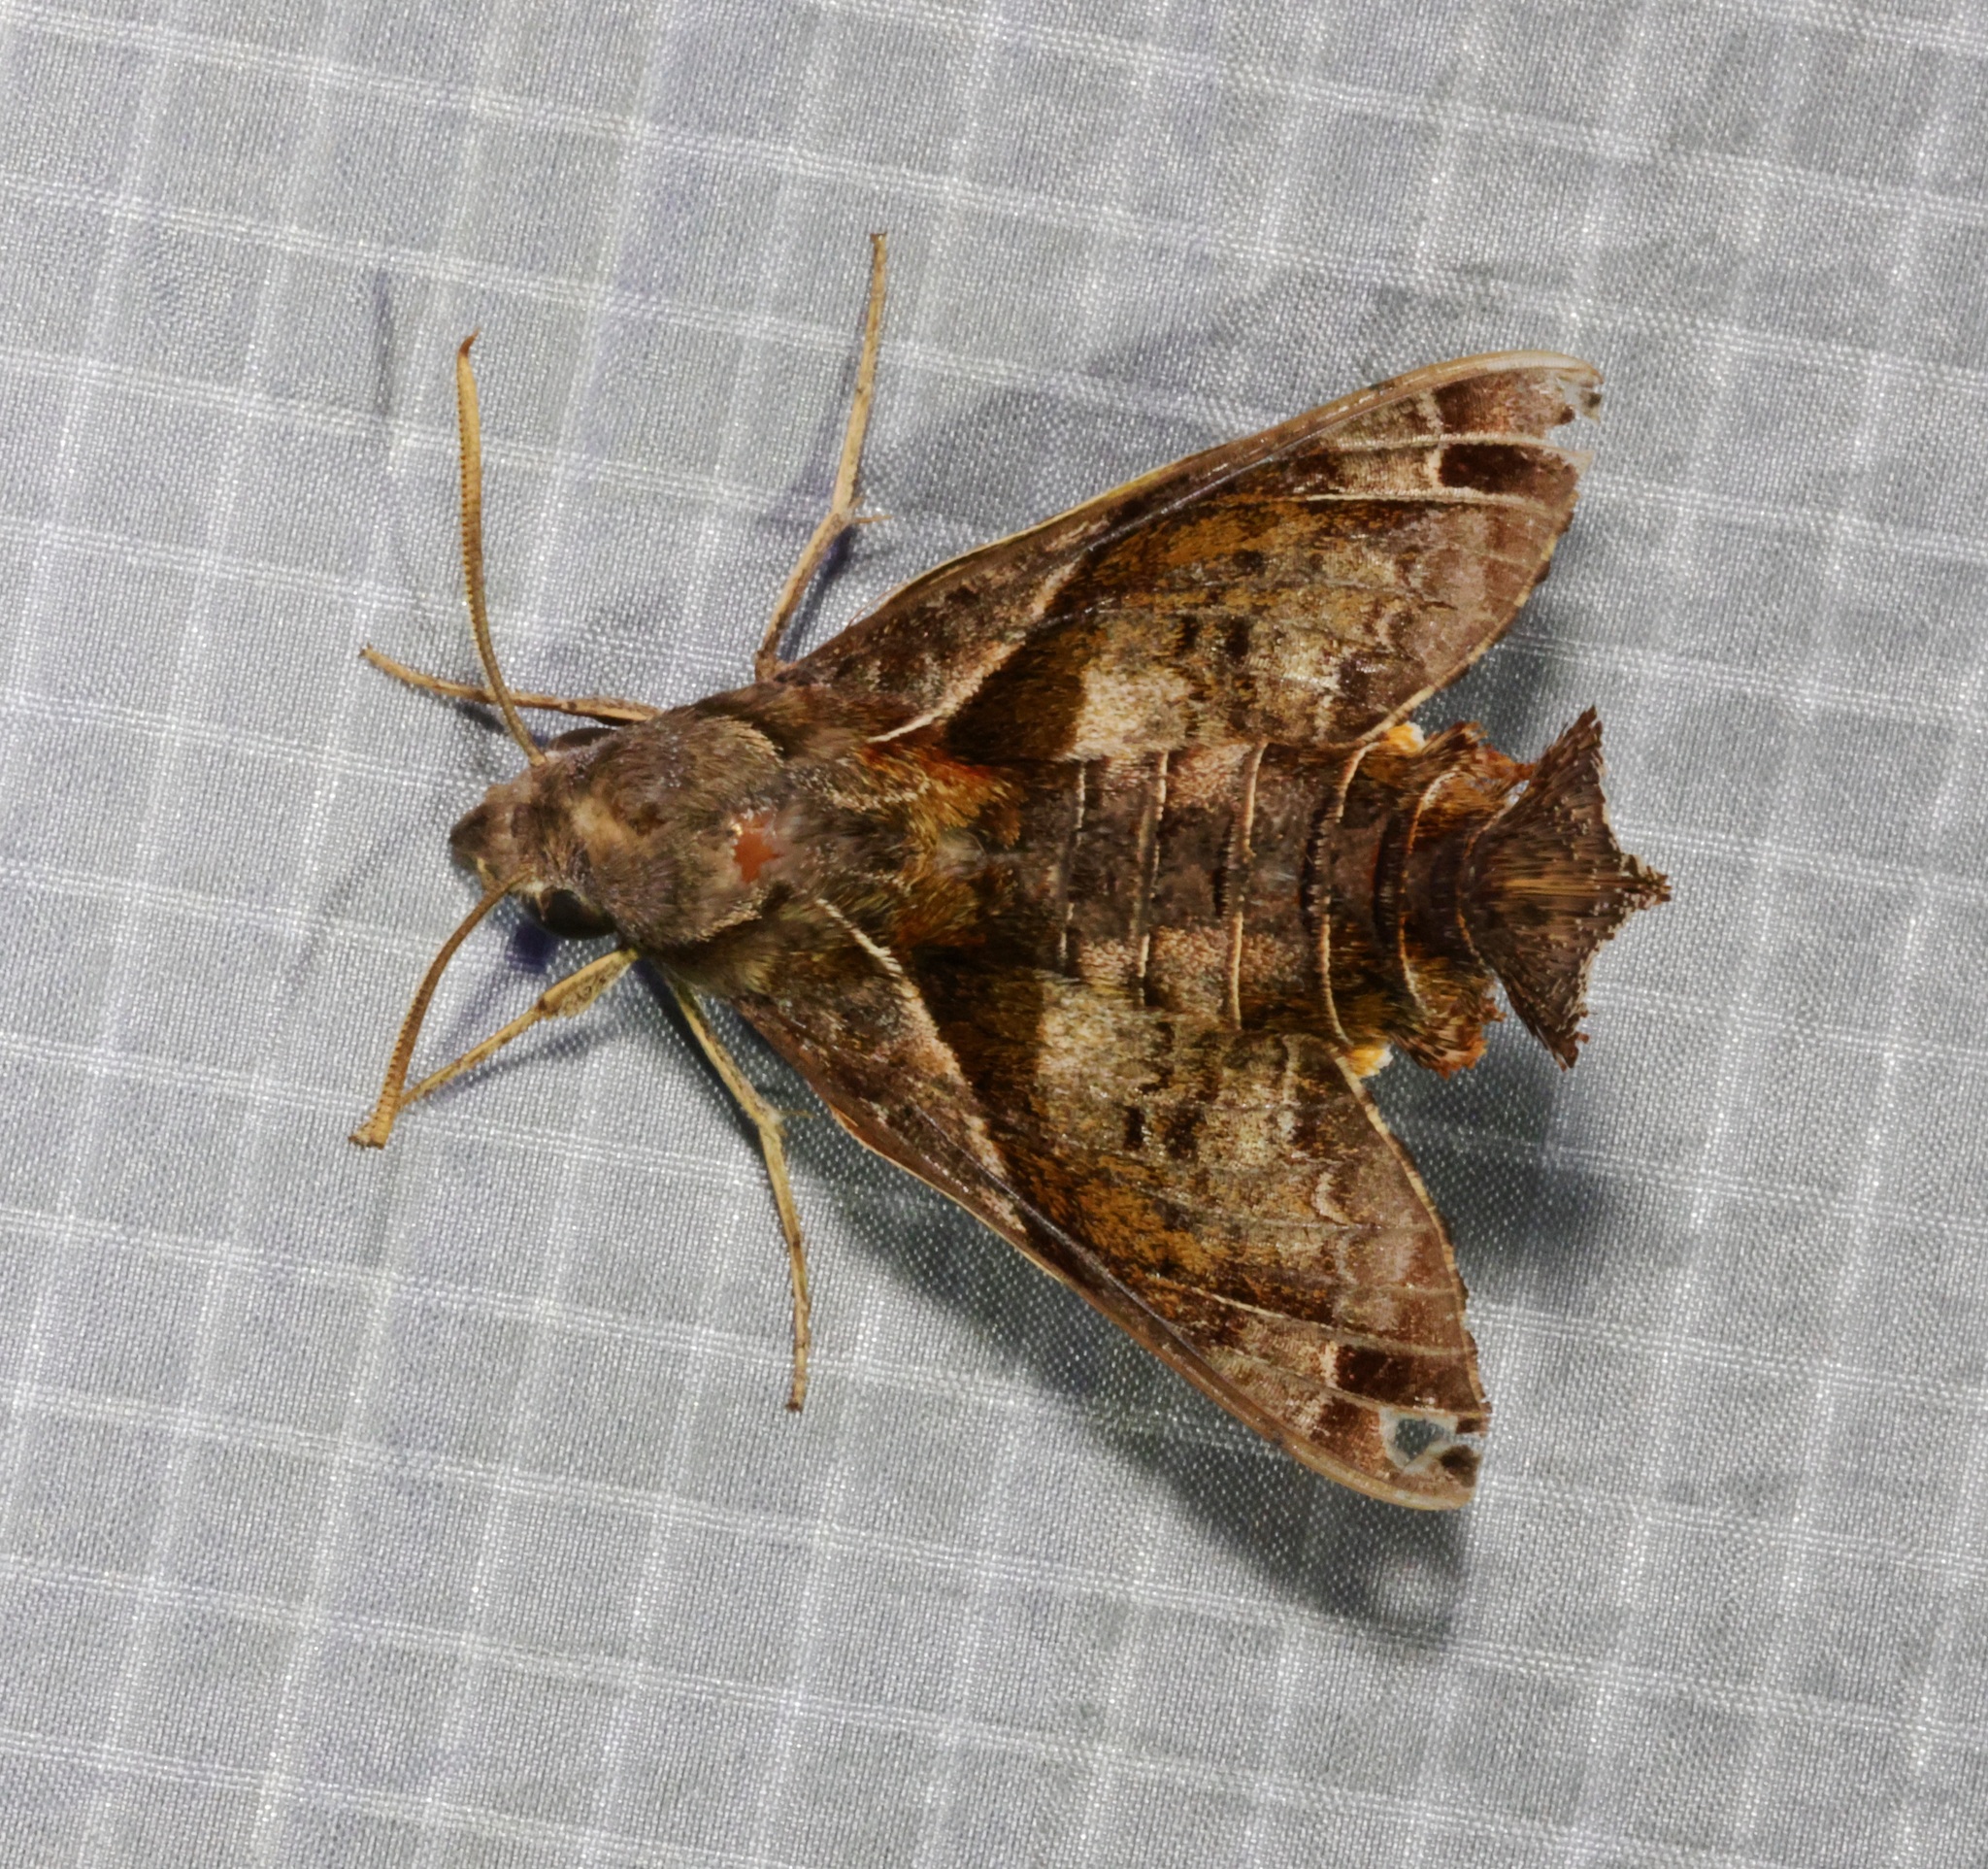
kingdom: Animalia
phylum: Arthropoda
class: Insecta
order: Lepidoptera
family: Sphingidae
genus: Macroglossum
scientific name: Macroglossum fritzei
